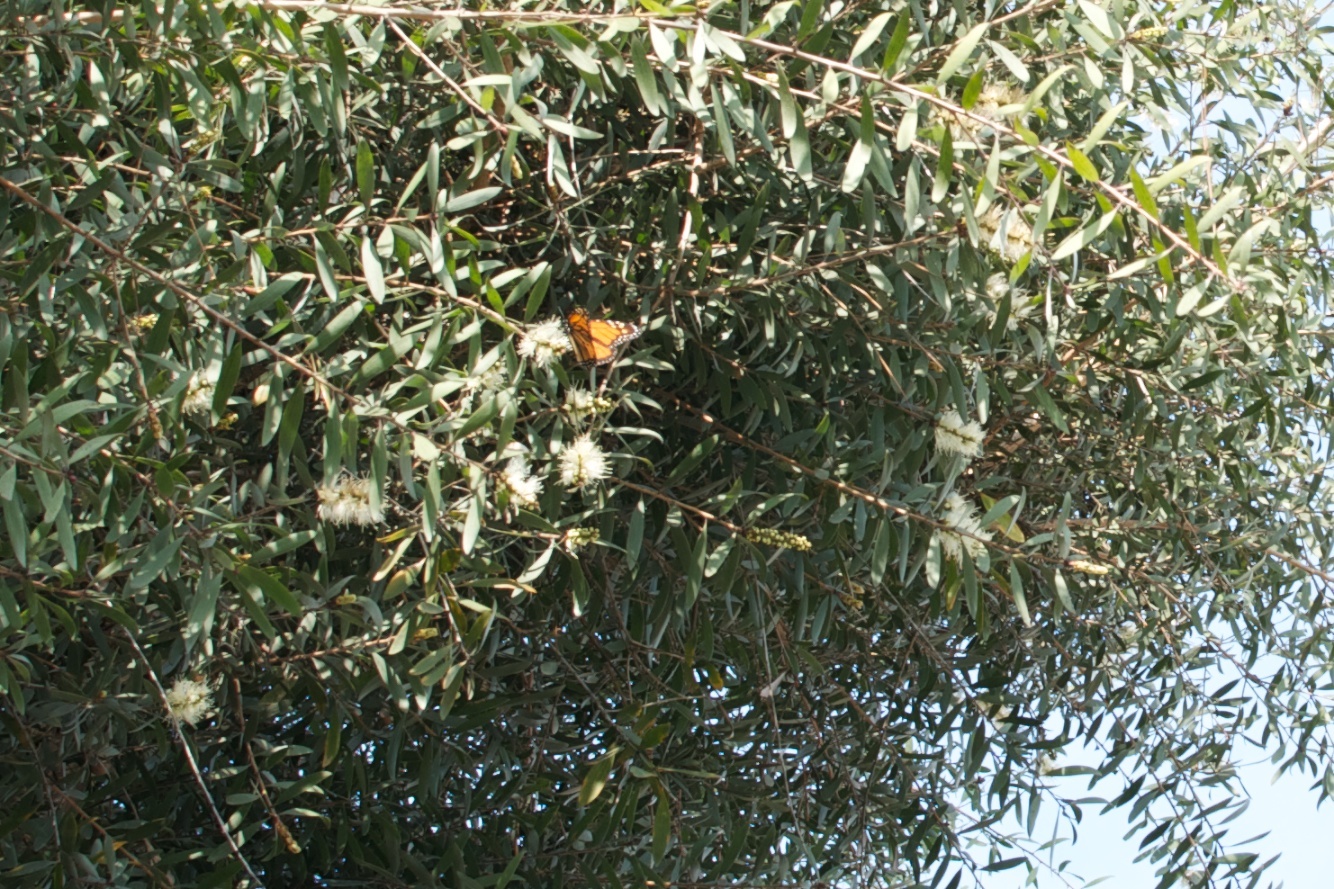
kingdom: Animalia
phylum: Arthropoda
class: Insecta
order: Lepidoptera
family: Nymphalidae
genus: Danaus
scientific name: Danaus plexippus
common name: Monarch
